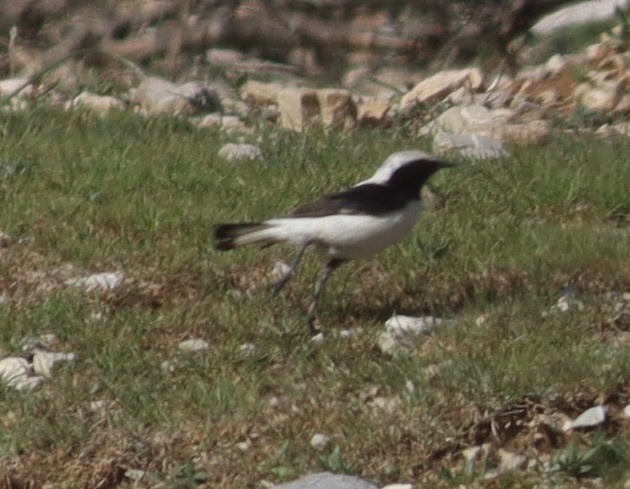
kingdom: Animalia
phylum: Chordata
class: Aves
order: Passeriformes
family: Muscicapidae
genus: Oenanthe
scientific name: Oenanthe finschii
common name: Finsch's wheatear
